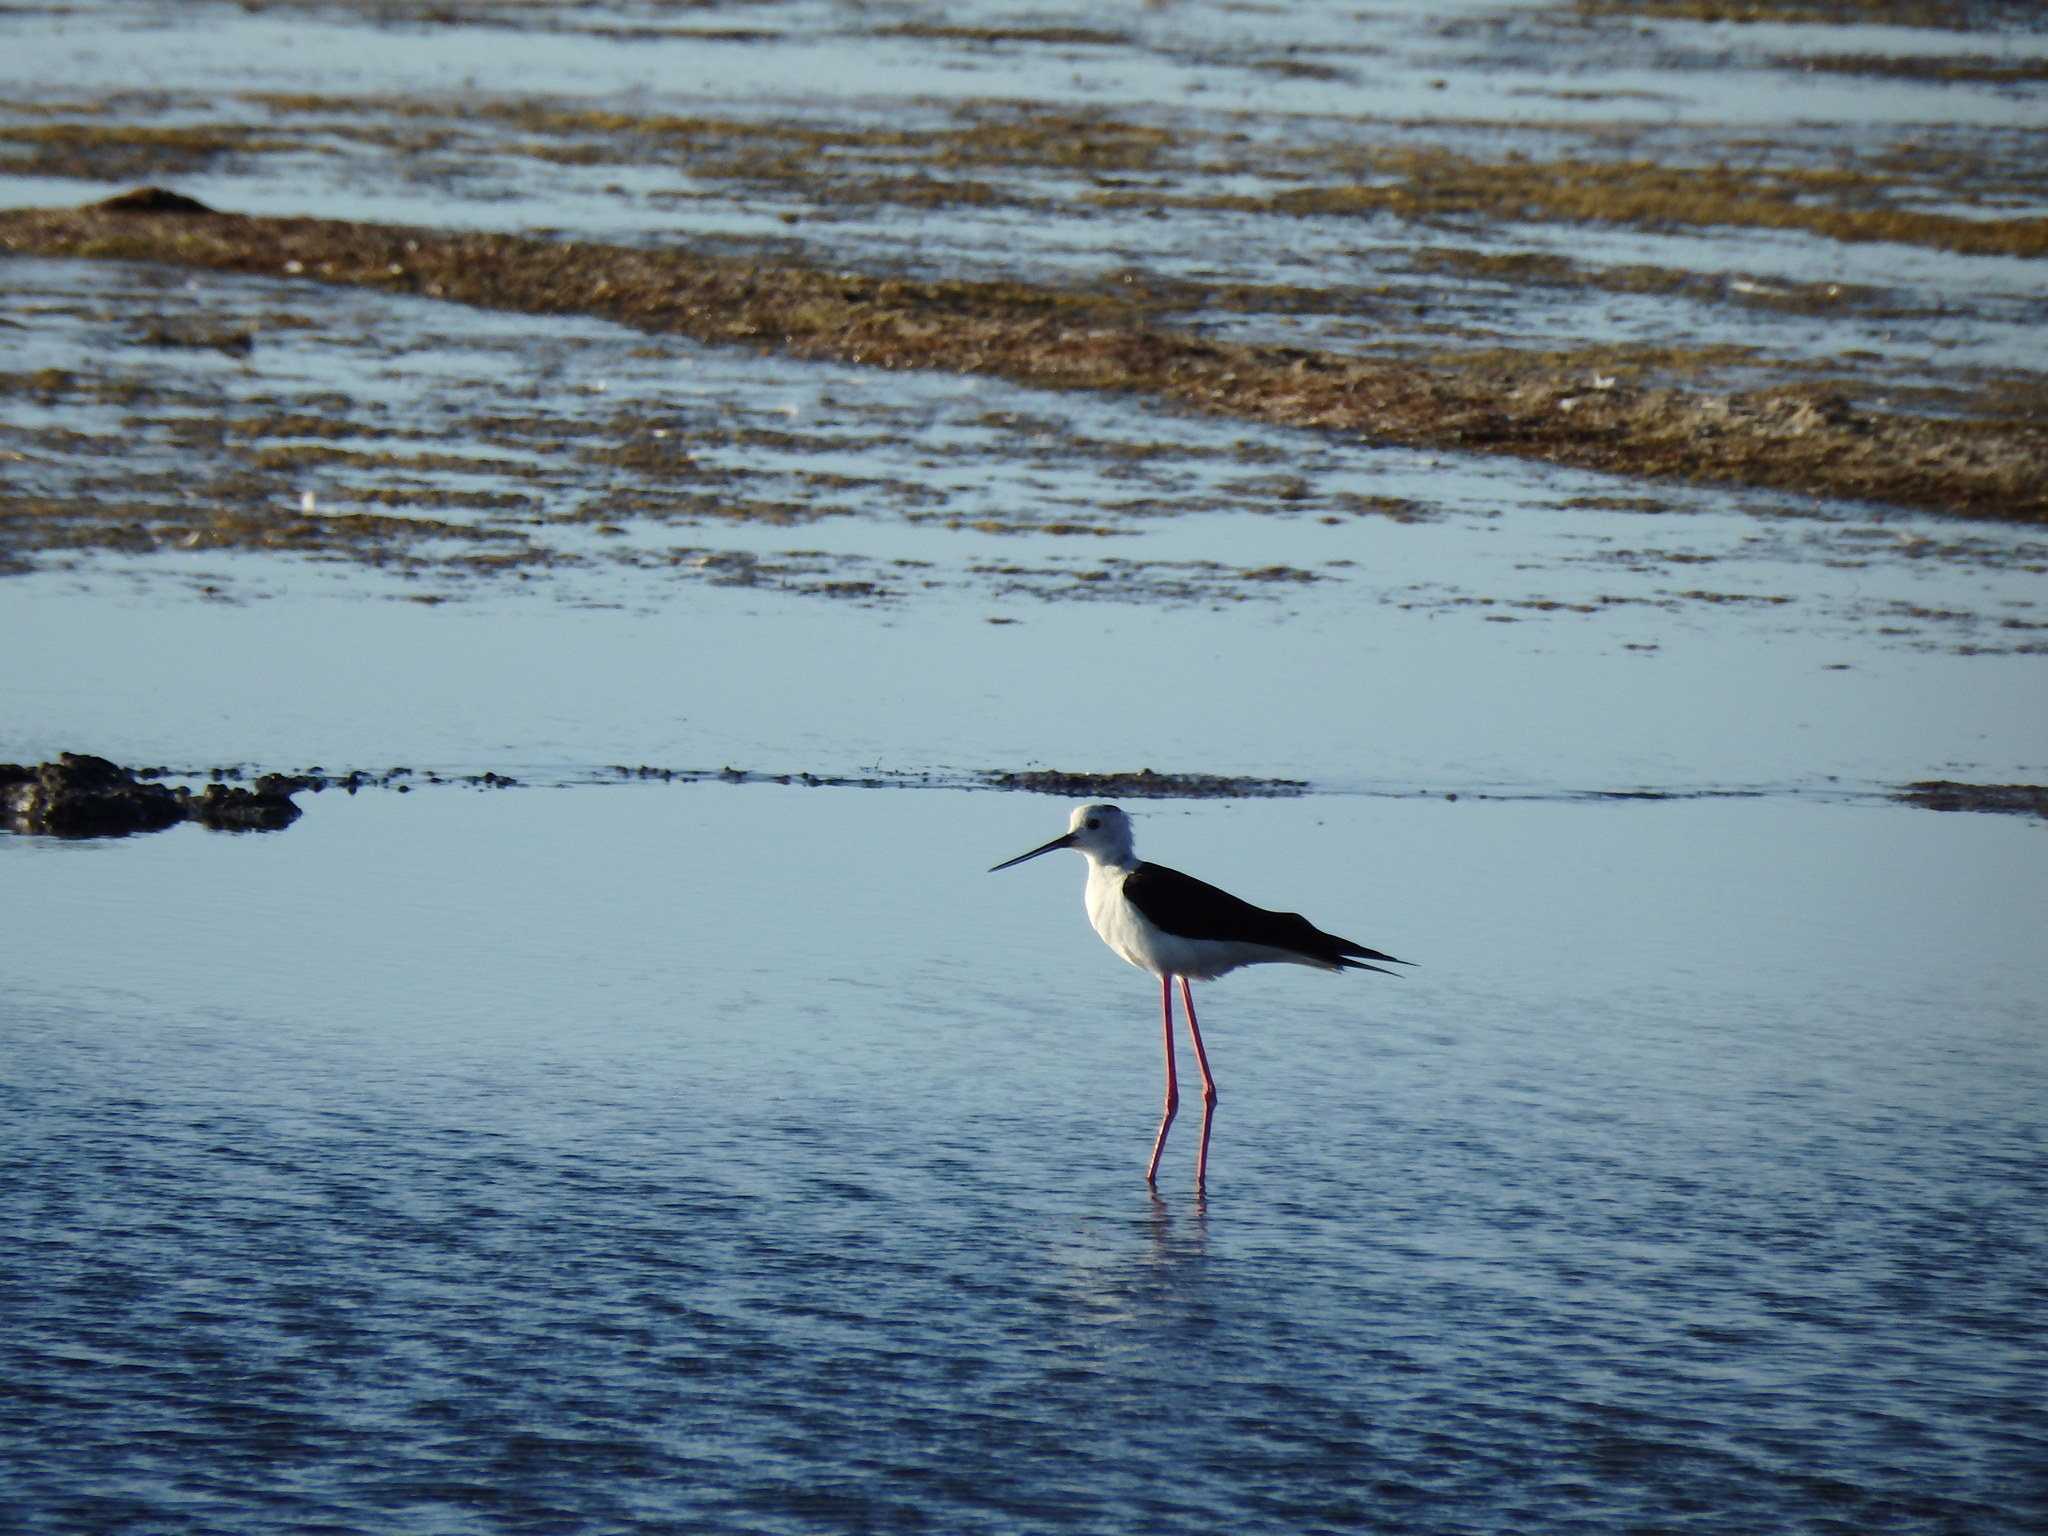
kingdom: Animalia
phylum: Chordata
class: Aves
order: Charadriiformes
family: Recurvirostridae
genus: Himantopus
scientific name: Himantopus himantopus
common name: Black-winged stilt
